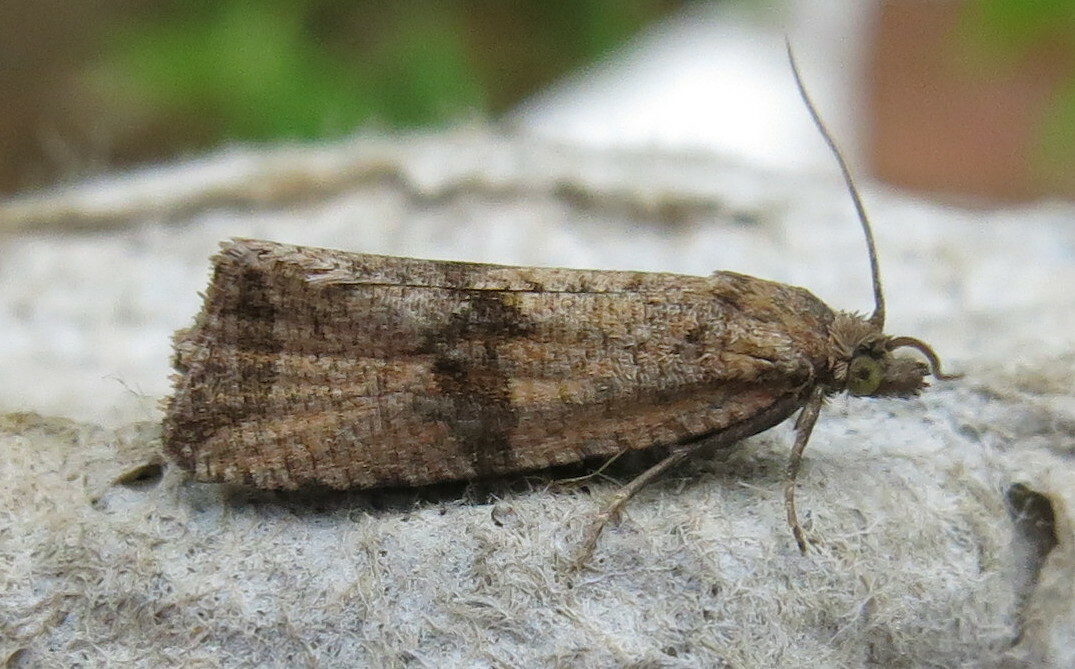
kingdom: Animalia
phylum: Arthropoda
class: Insecta
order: Lepidoptera
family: Tortricidae
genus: Celypha
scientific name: Celypha striana
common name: Barred marble
